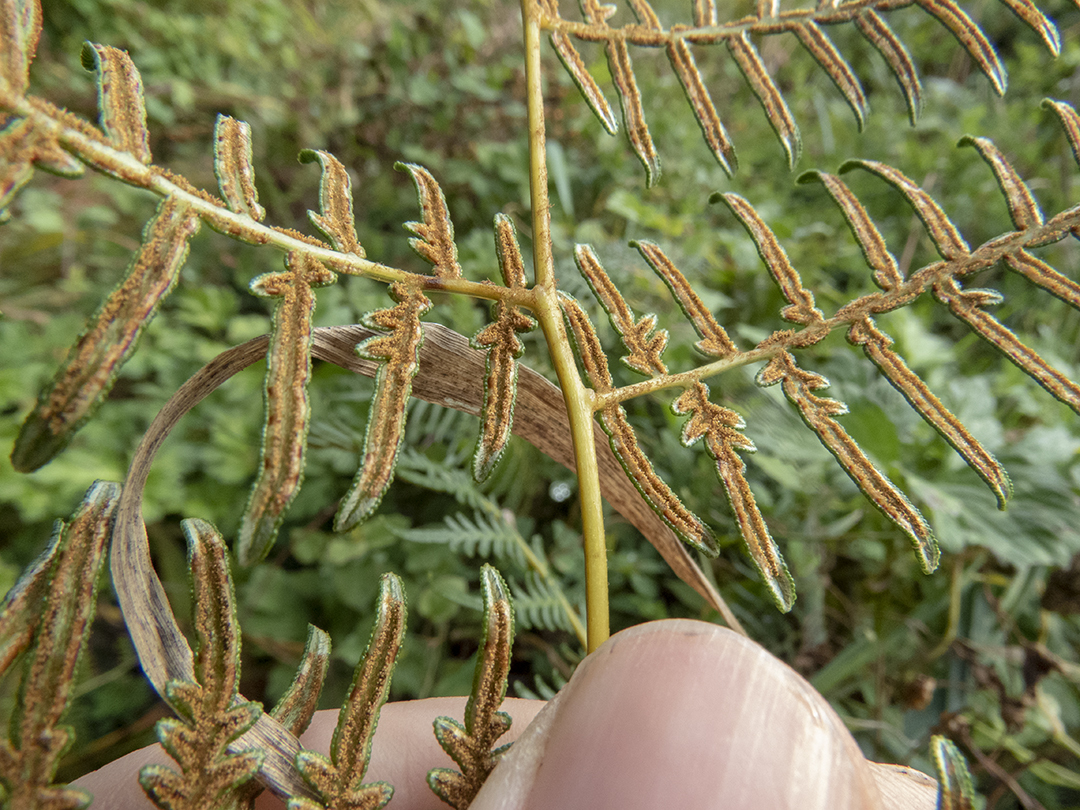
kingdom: Plantae
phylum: Tracheophyta
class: Polypodiopsida
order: Polypodiales
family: Dennstaedtiaceae
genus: Pteridium
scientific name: Pteridium esculentum
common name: Bracken fern
